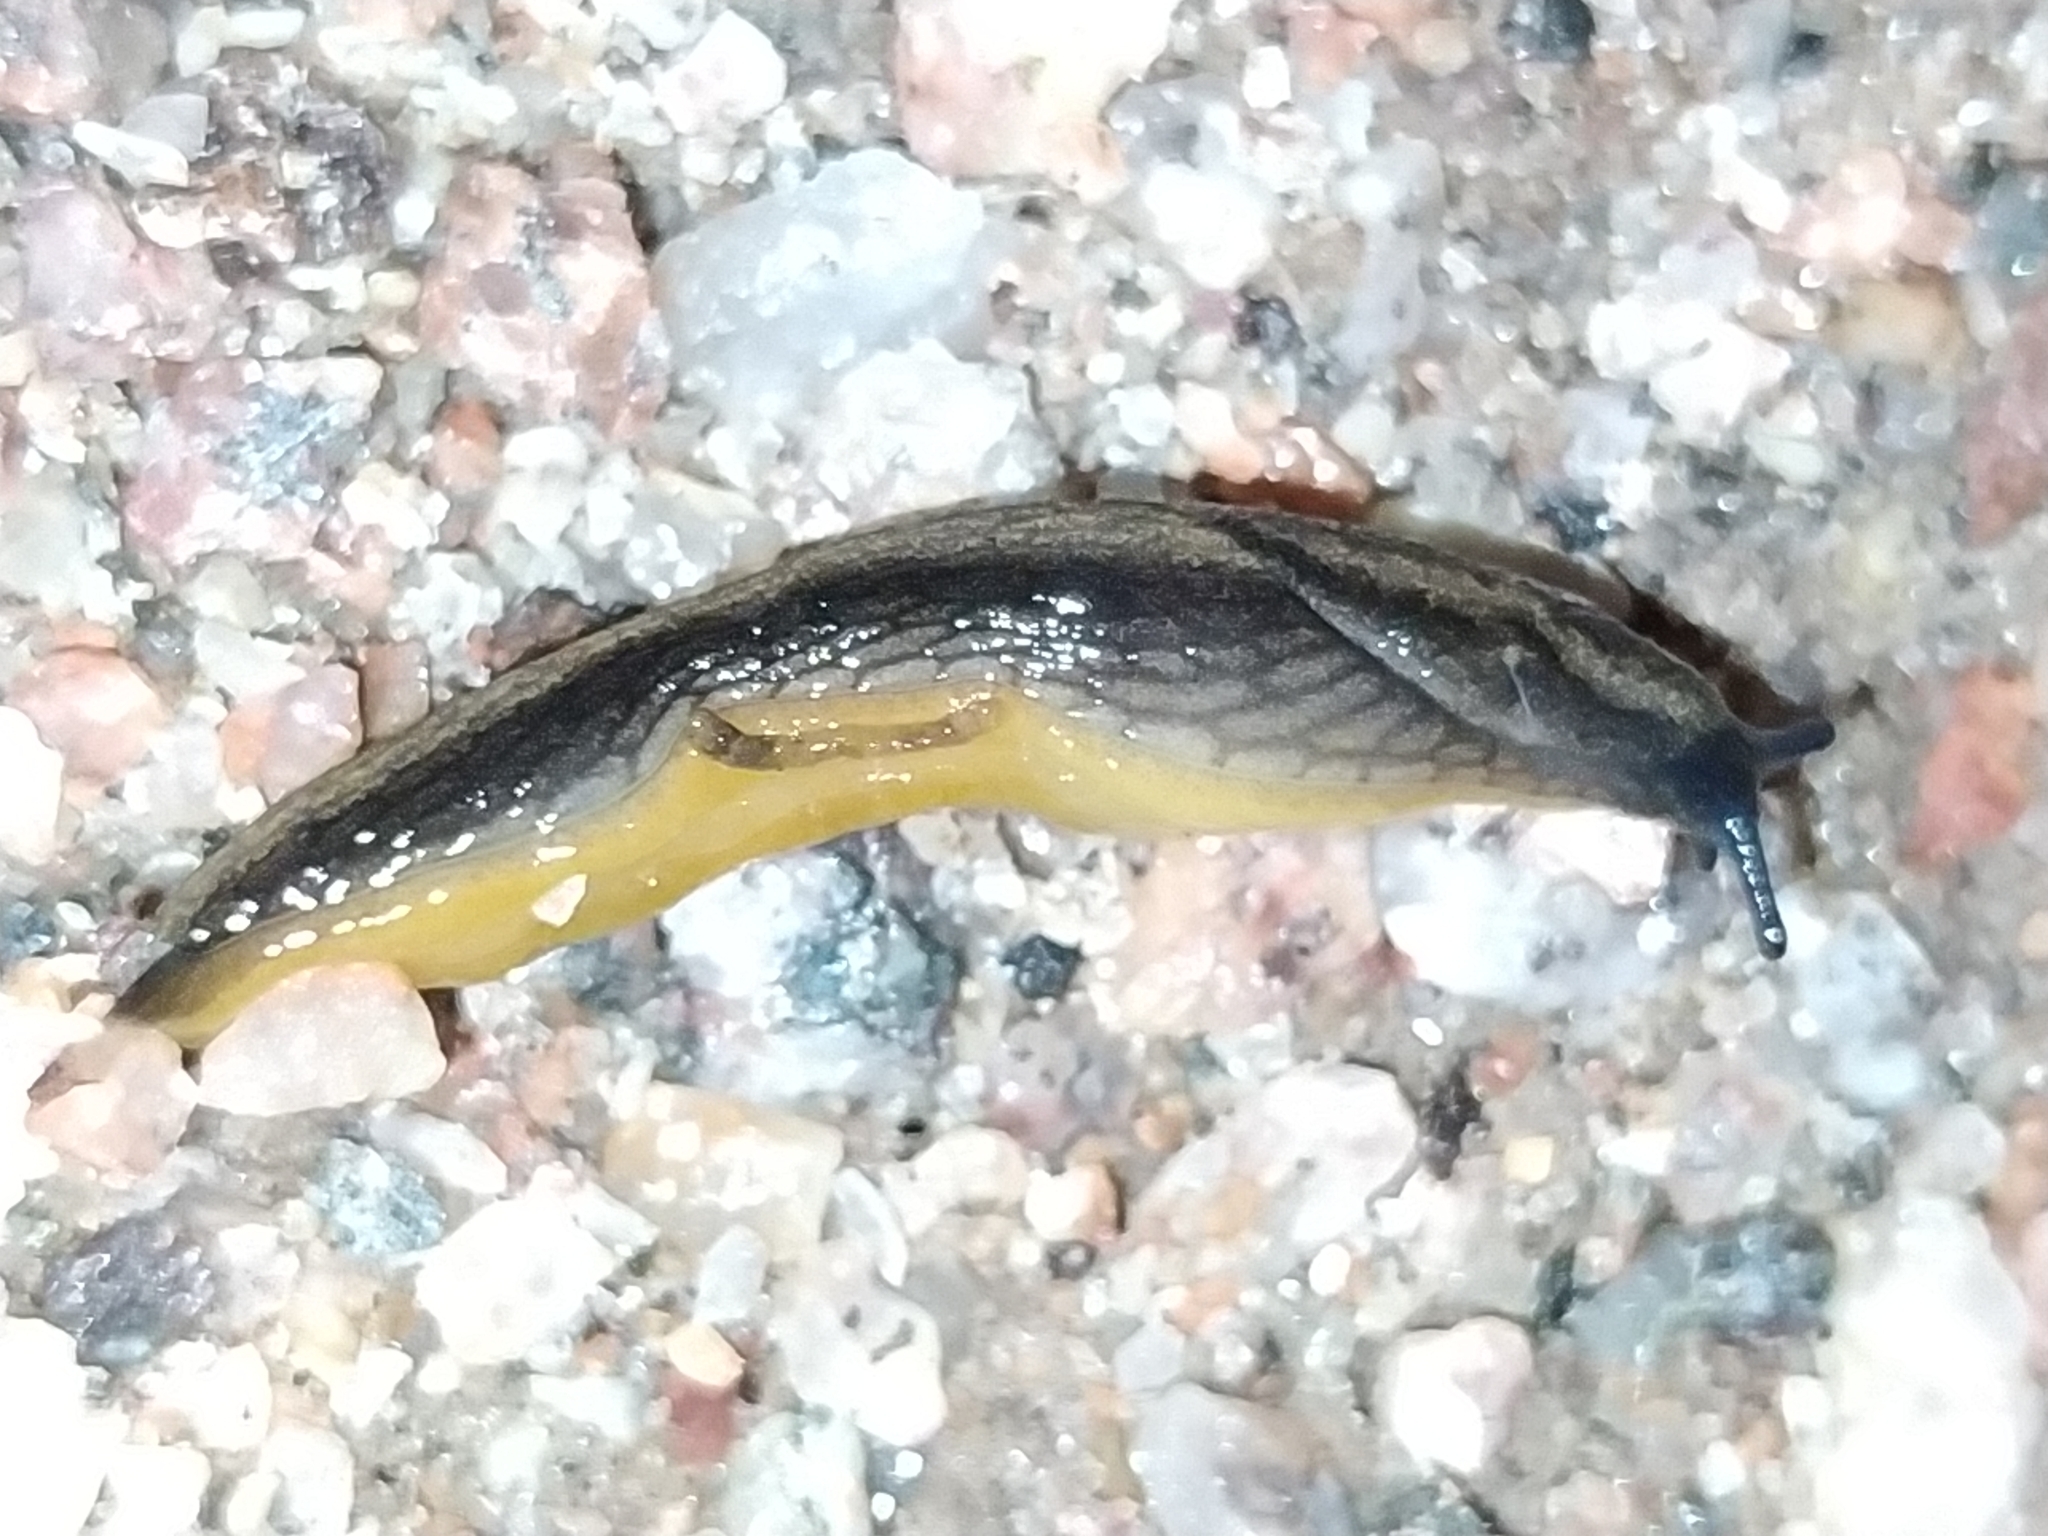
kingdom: Animalia
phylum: Mollusca
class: Gastropoda
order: Stylommatophora
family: Arionidae
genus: Arion
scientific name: Arion distinctus
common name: Darkface arion
